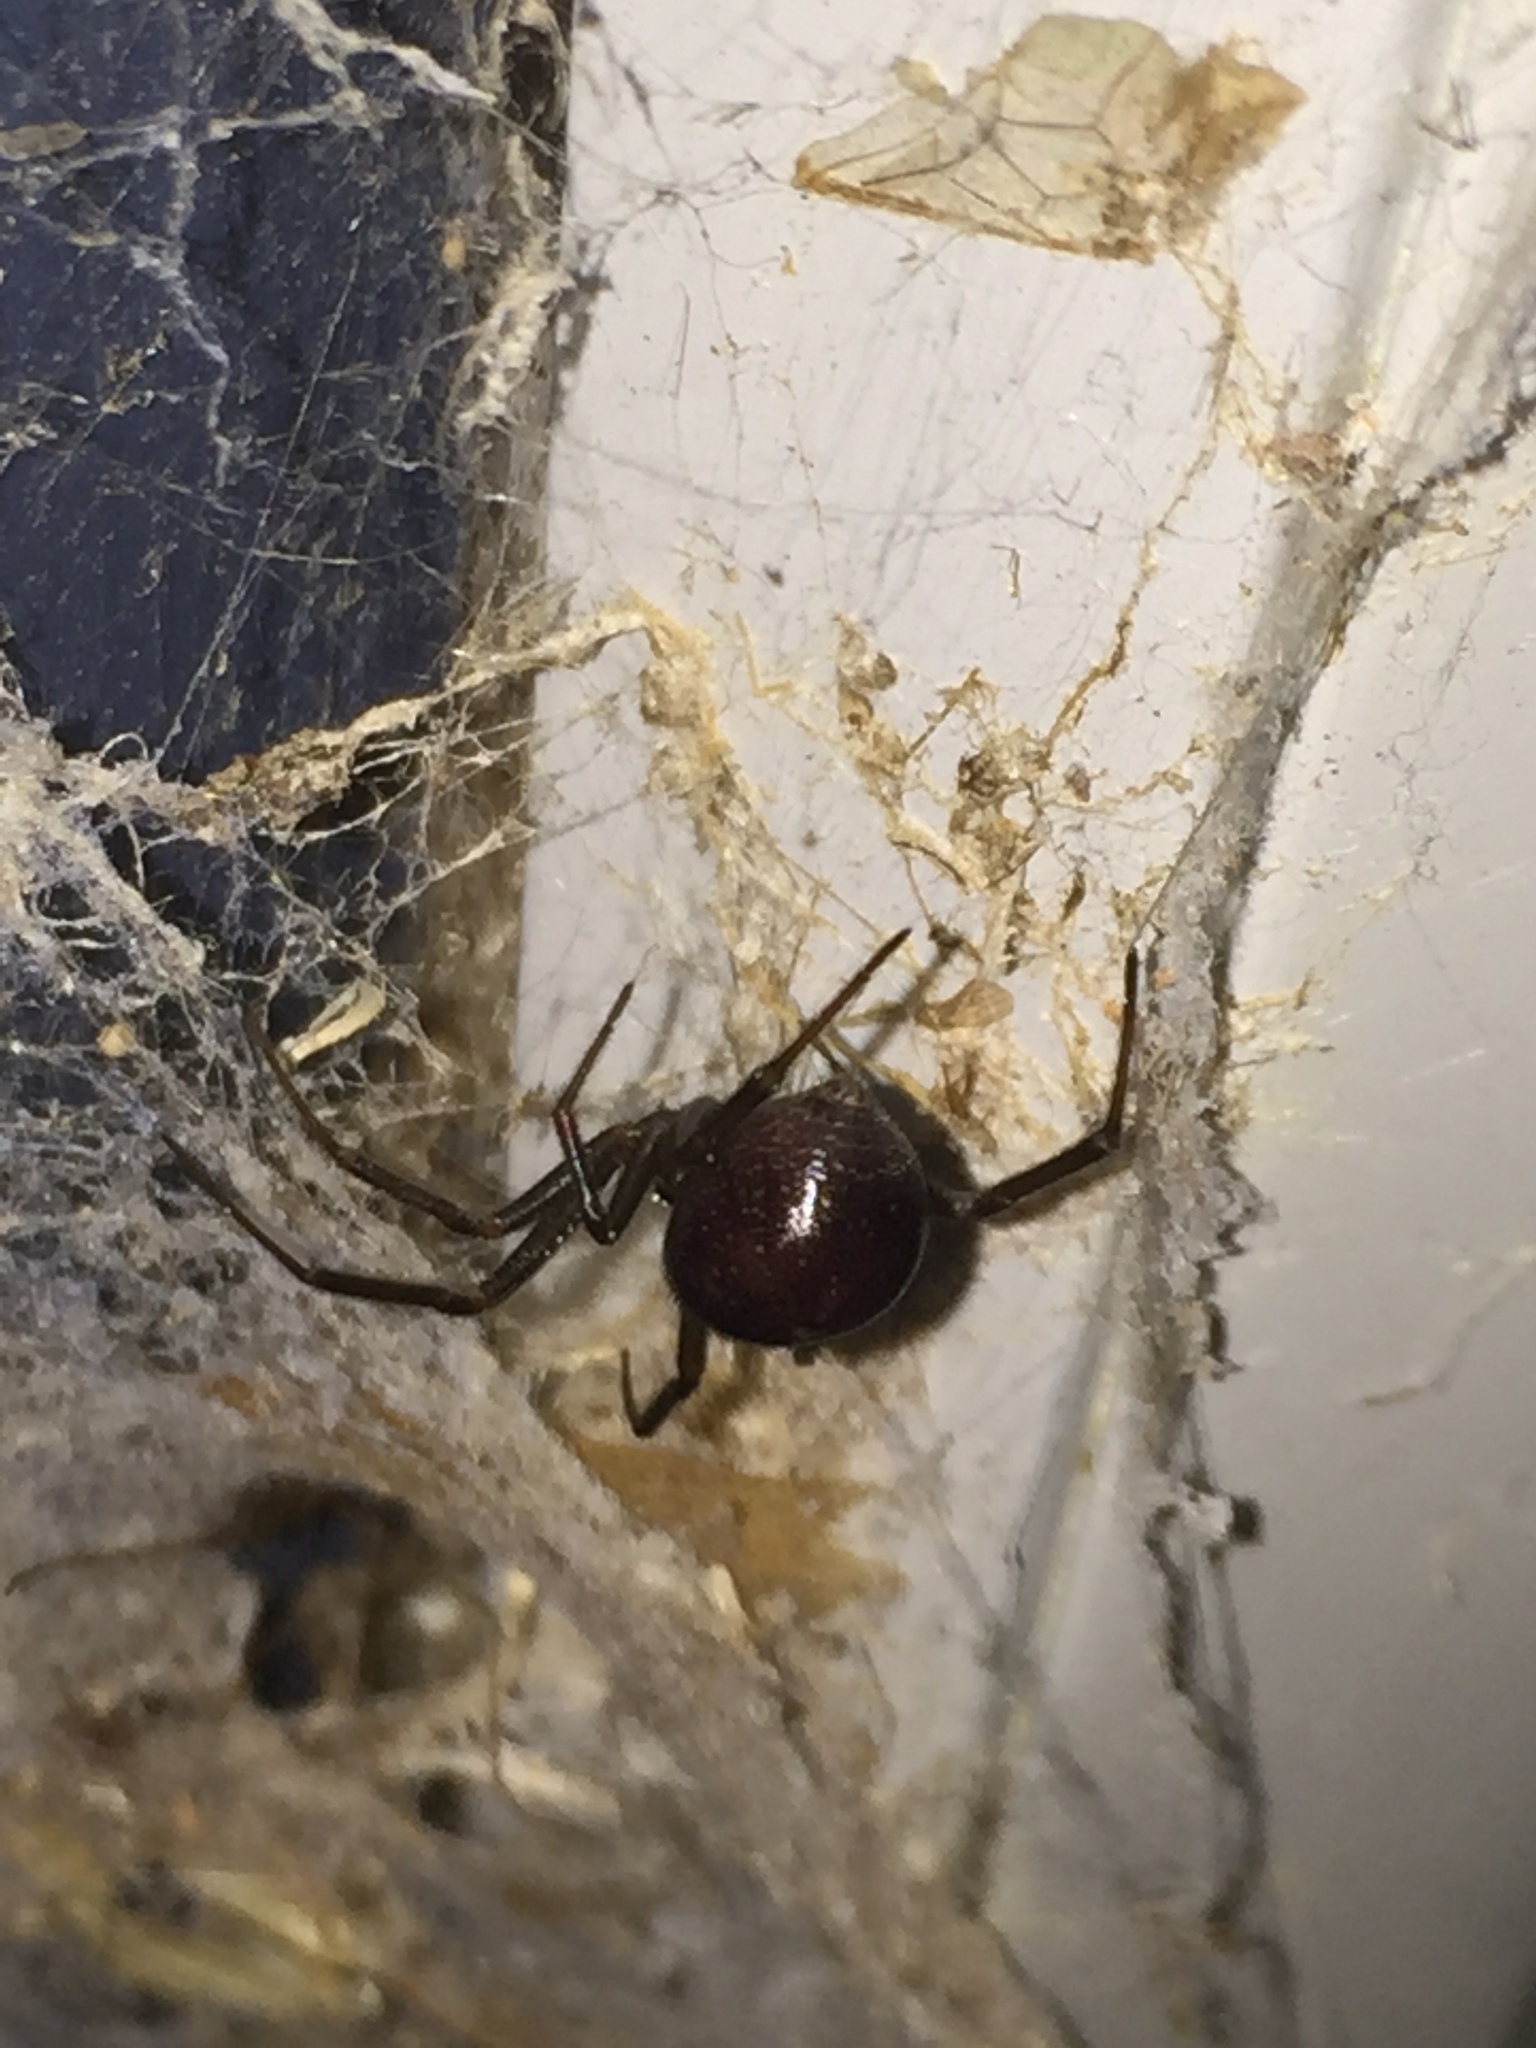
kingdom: Animalia
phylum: Arthropoda
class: Arachnida
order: Araneae
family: Theridiidae
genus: Steatoda
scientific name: Steatoda grossa
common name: False black widow
